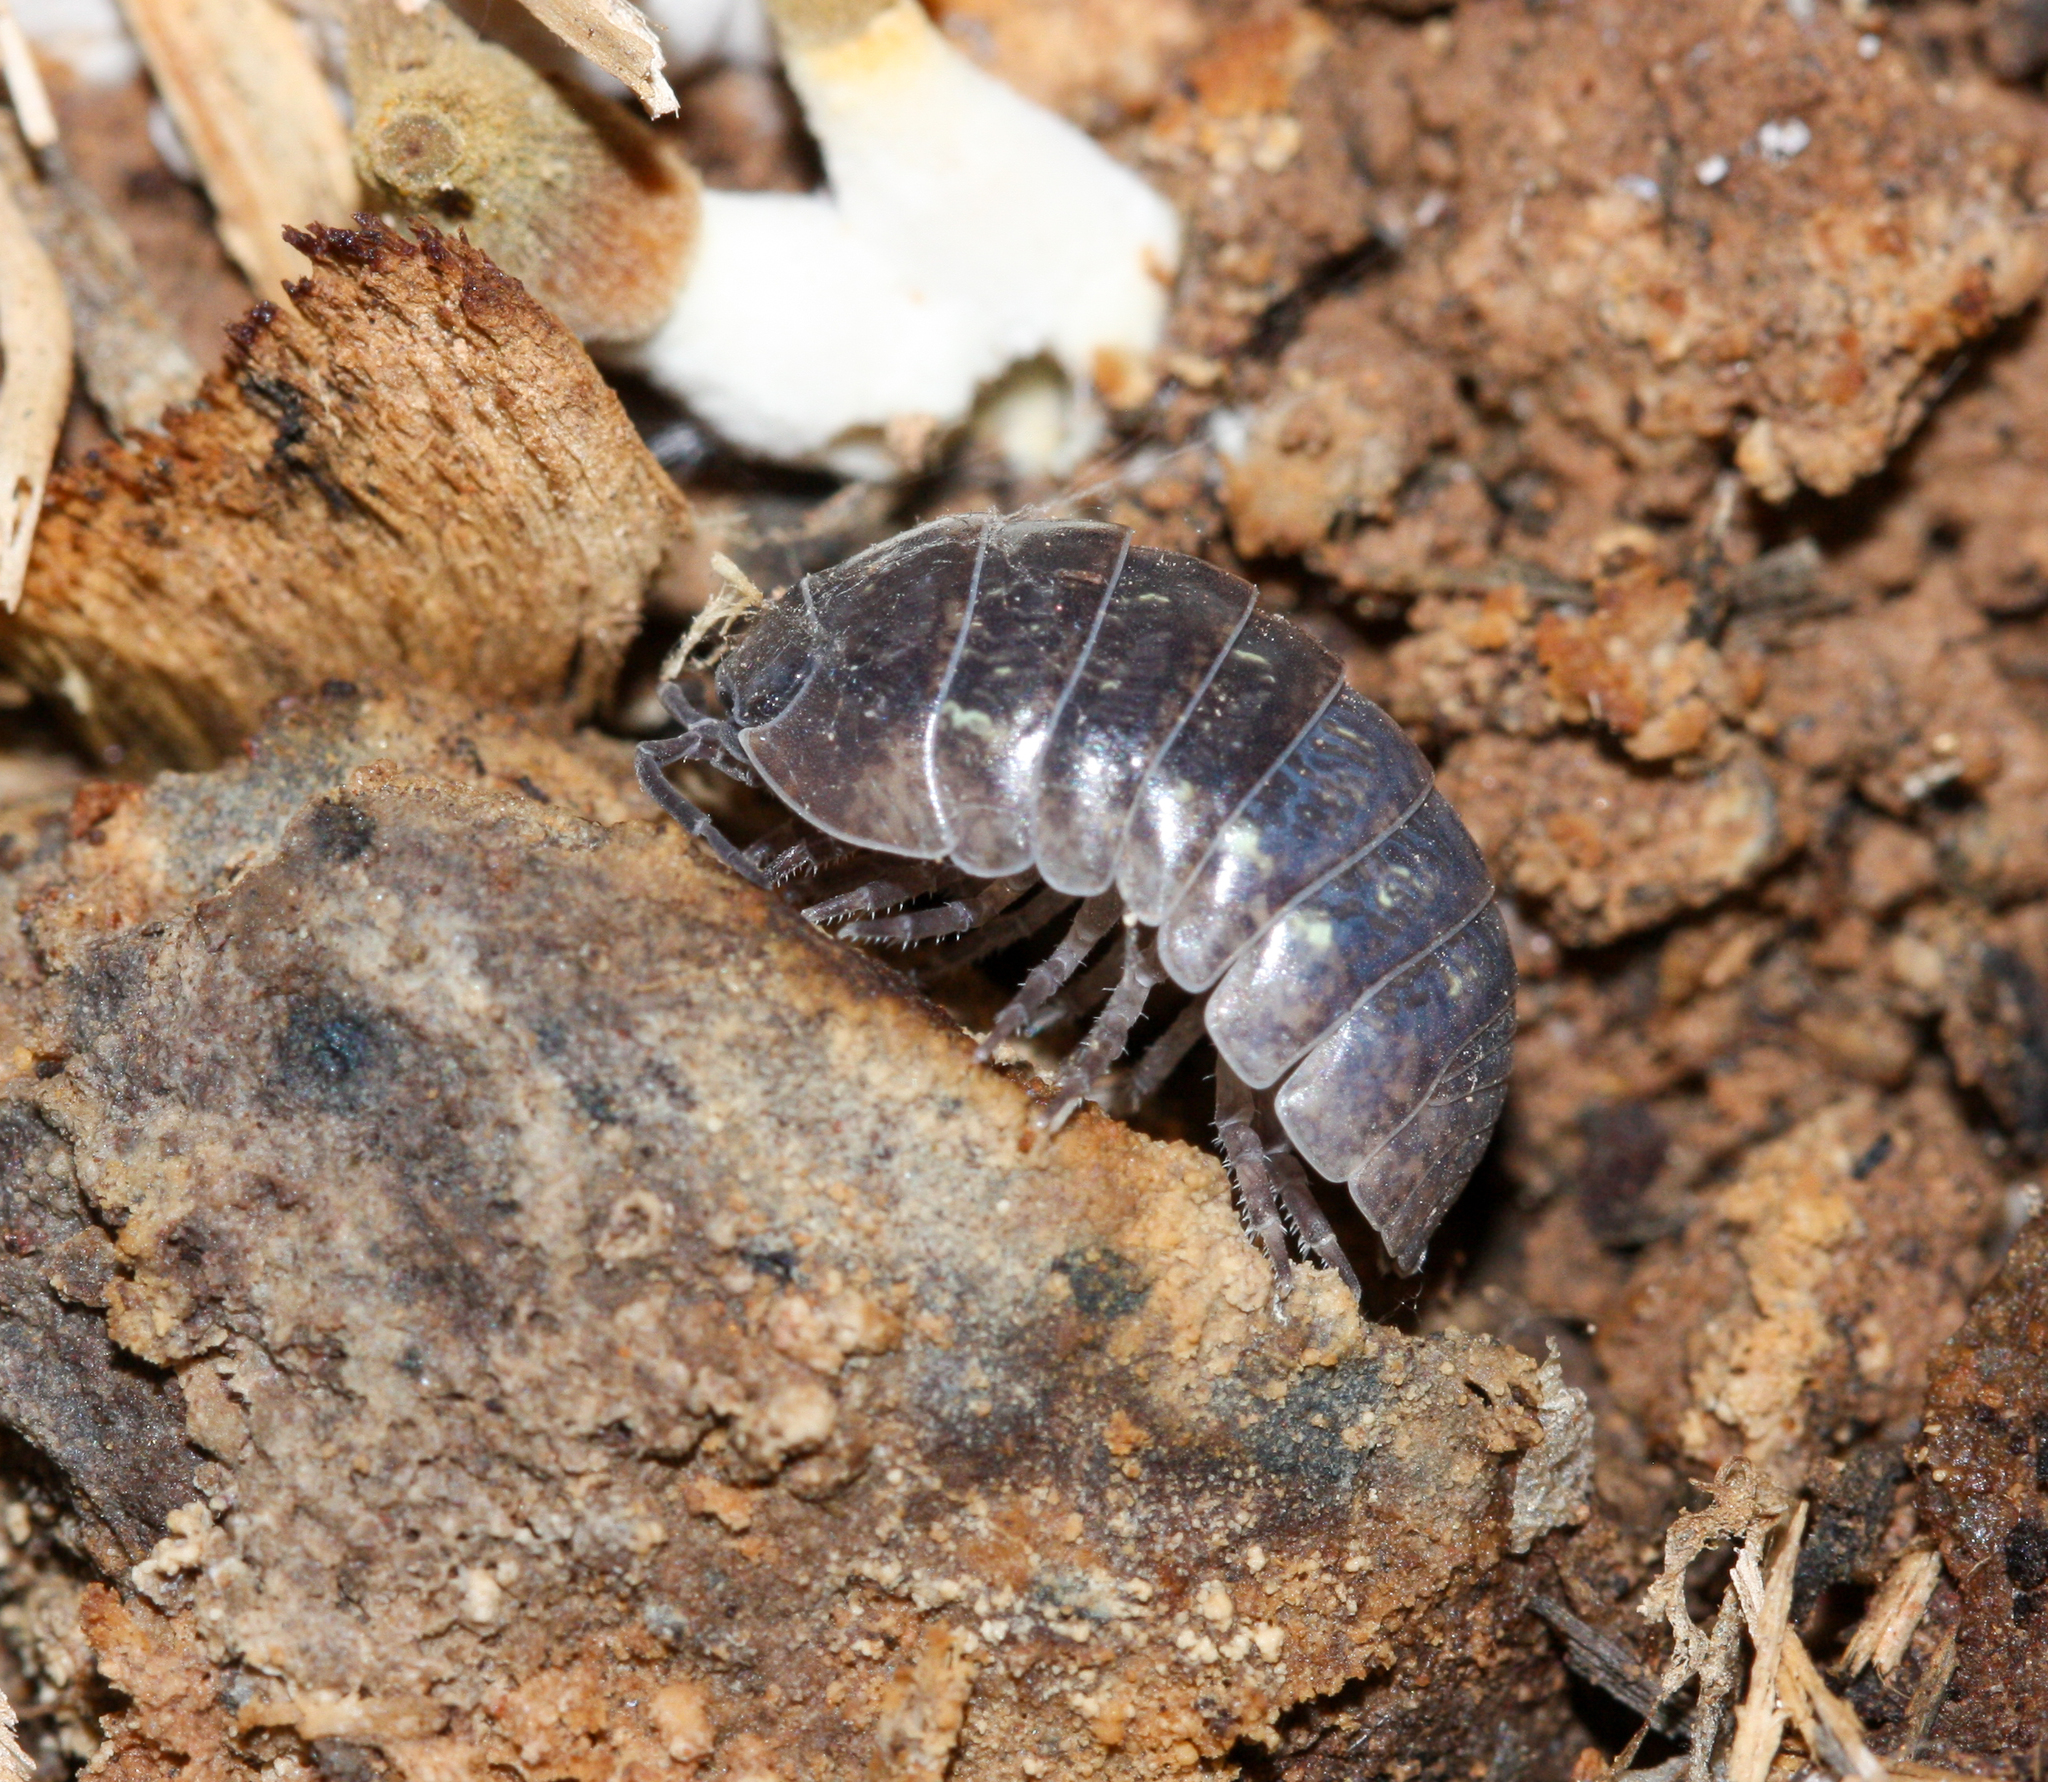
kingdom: Animalia
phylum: Arthropoda
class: Malacostraca
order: Isopoda
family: Armadillidiidae
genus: Armadillidium
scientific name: Armadillidium vulgare
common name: Common pill woodlouse
